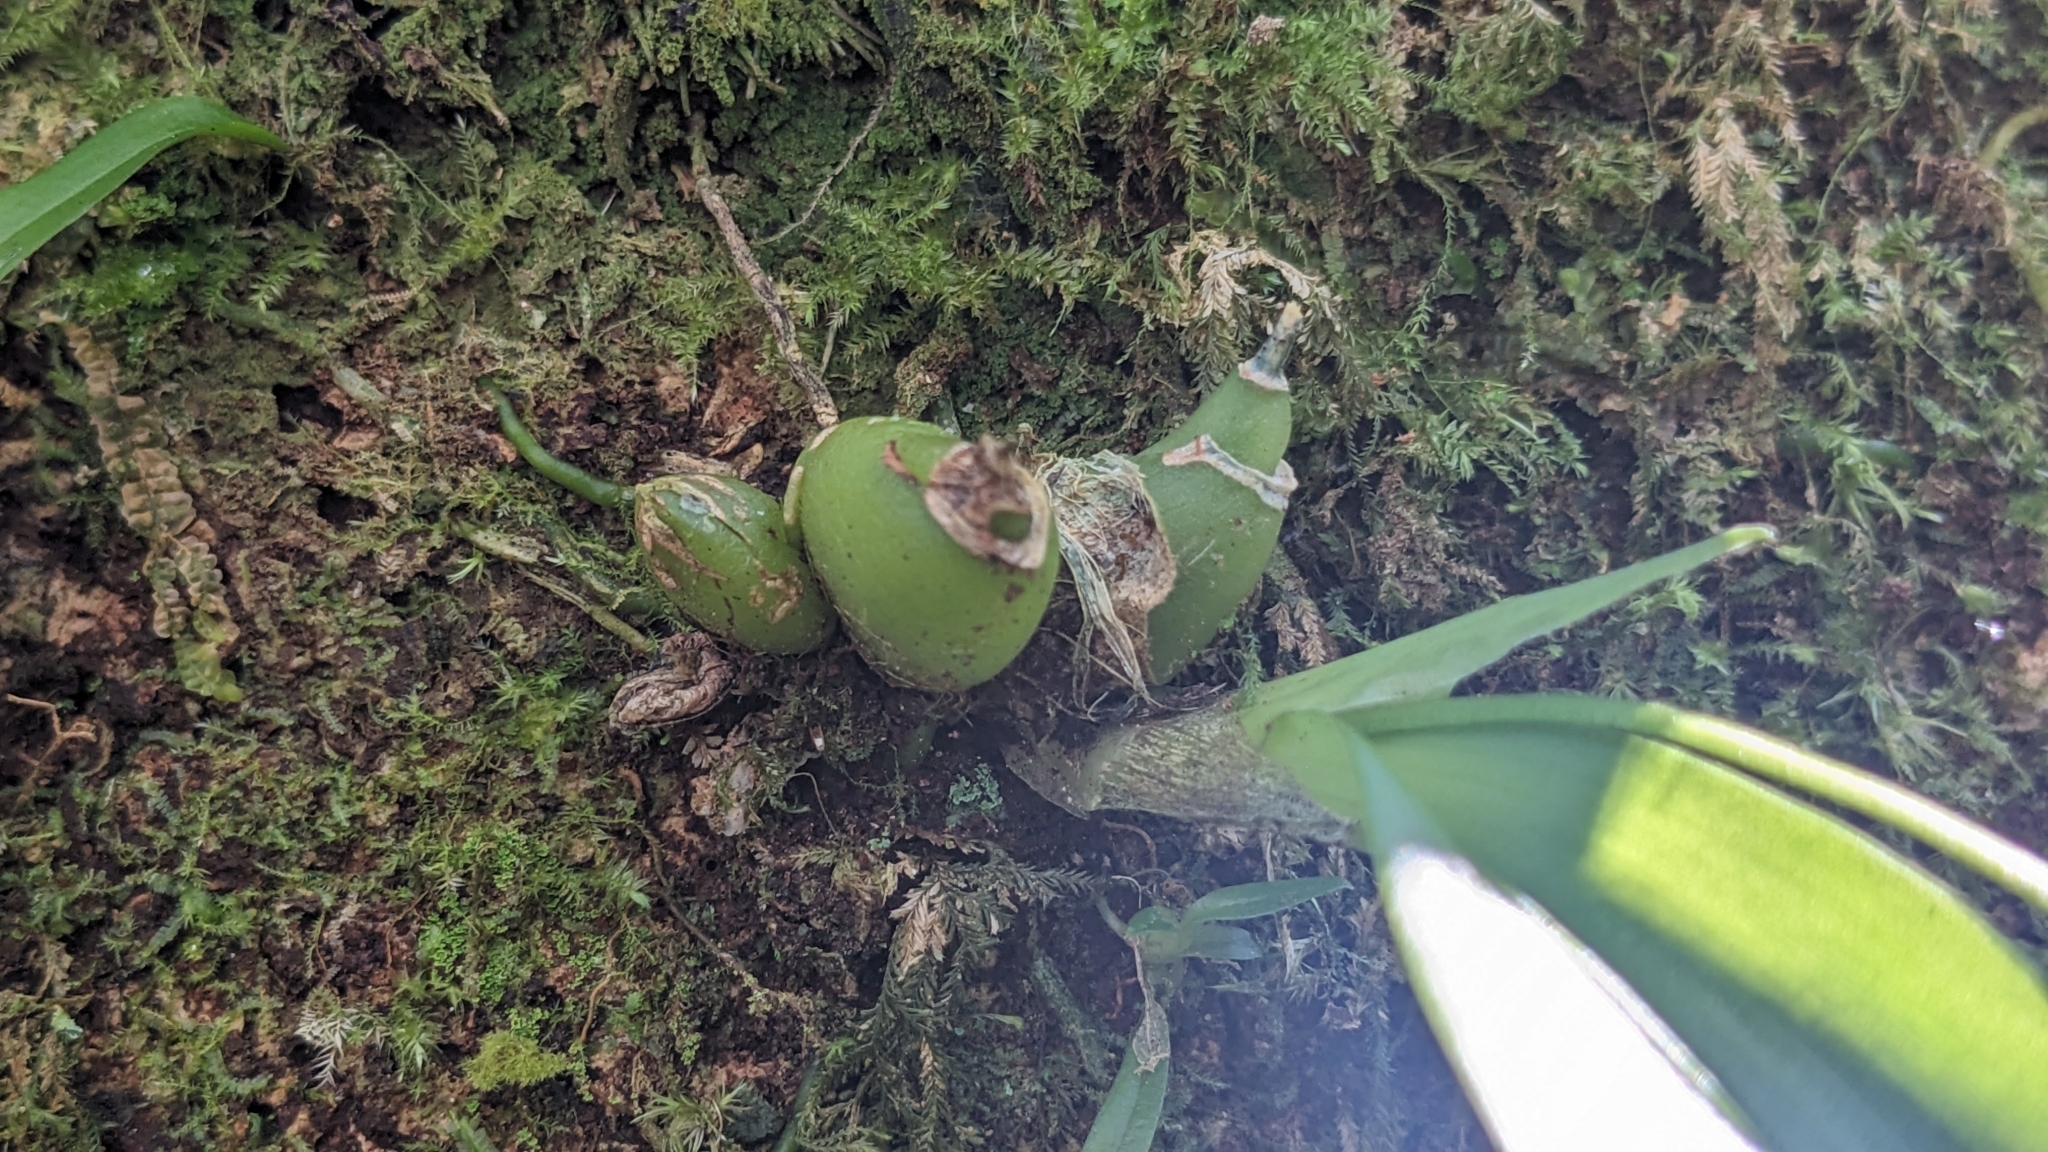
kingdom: Plantae
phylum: Tracheophyta
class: Liliopsida
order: Asparagales
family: Orchidaceae
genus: Liparis
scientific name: Liparis bootanensis
